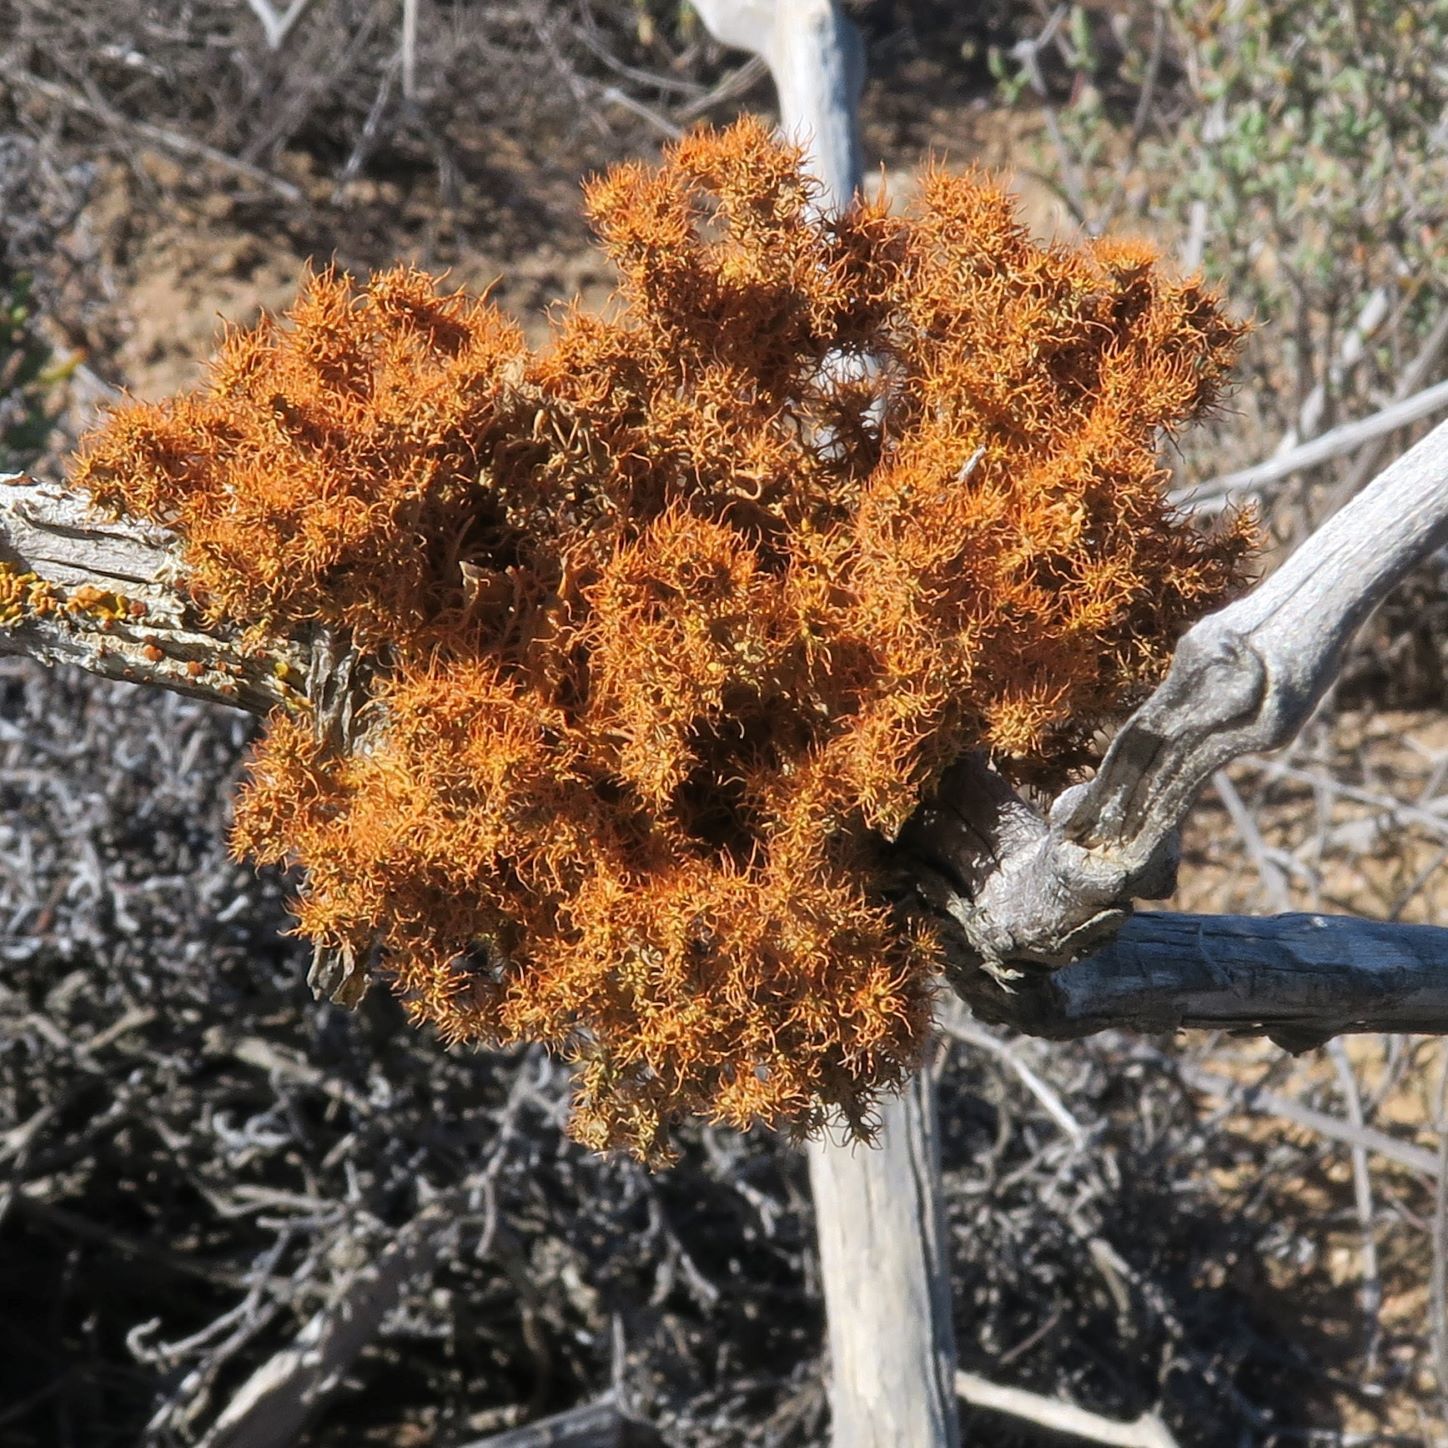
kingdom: Fungi
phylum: Ascomycota
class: Lecanoromycetes
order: Teloschistales
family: Teloschistaceae
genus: Teloschistes
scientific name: Teloschistes puber
